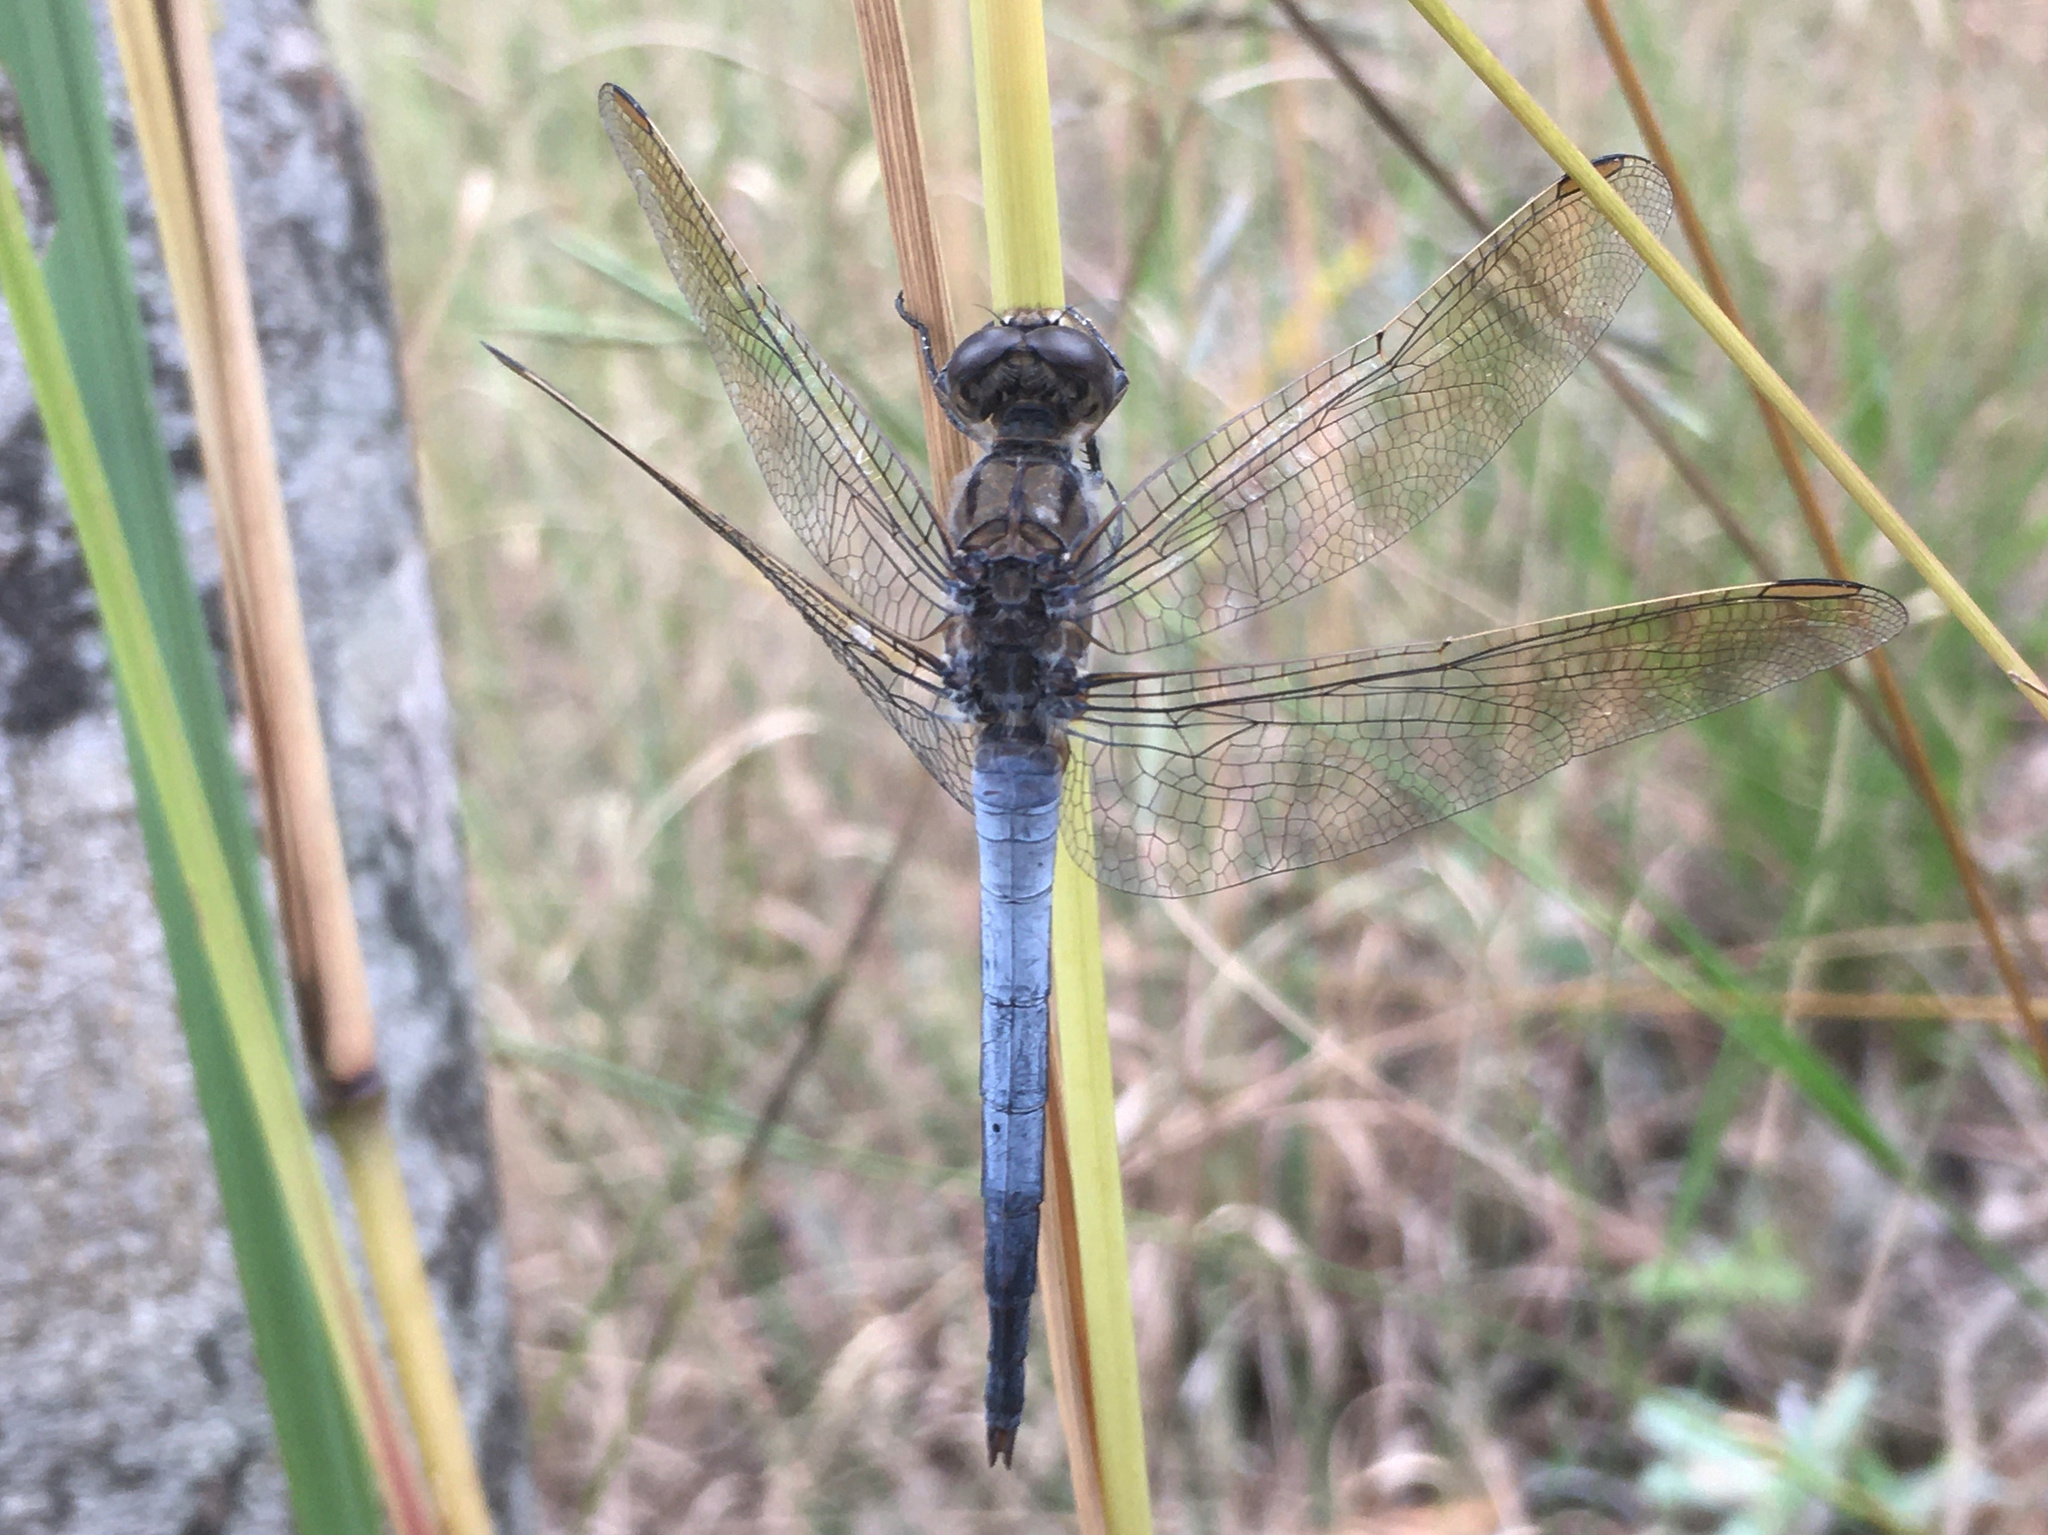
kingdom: Animalia
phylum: Arthropoda
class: Insecta
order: Odonata
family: Libellulidae
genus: Orthetrum
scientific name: Orthetrum caledonicum
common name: Blue skimmer
